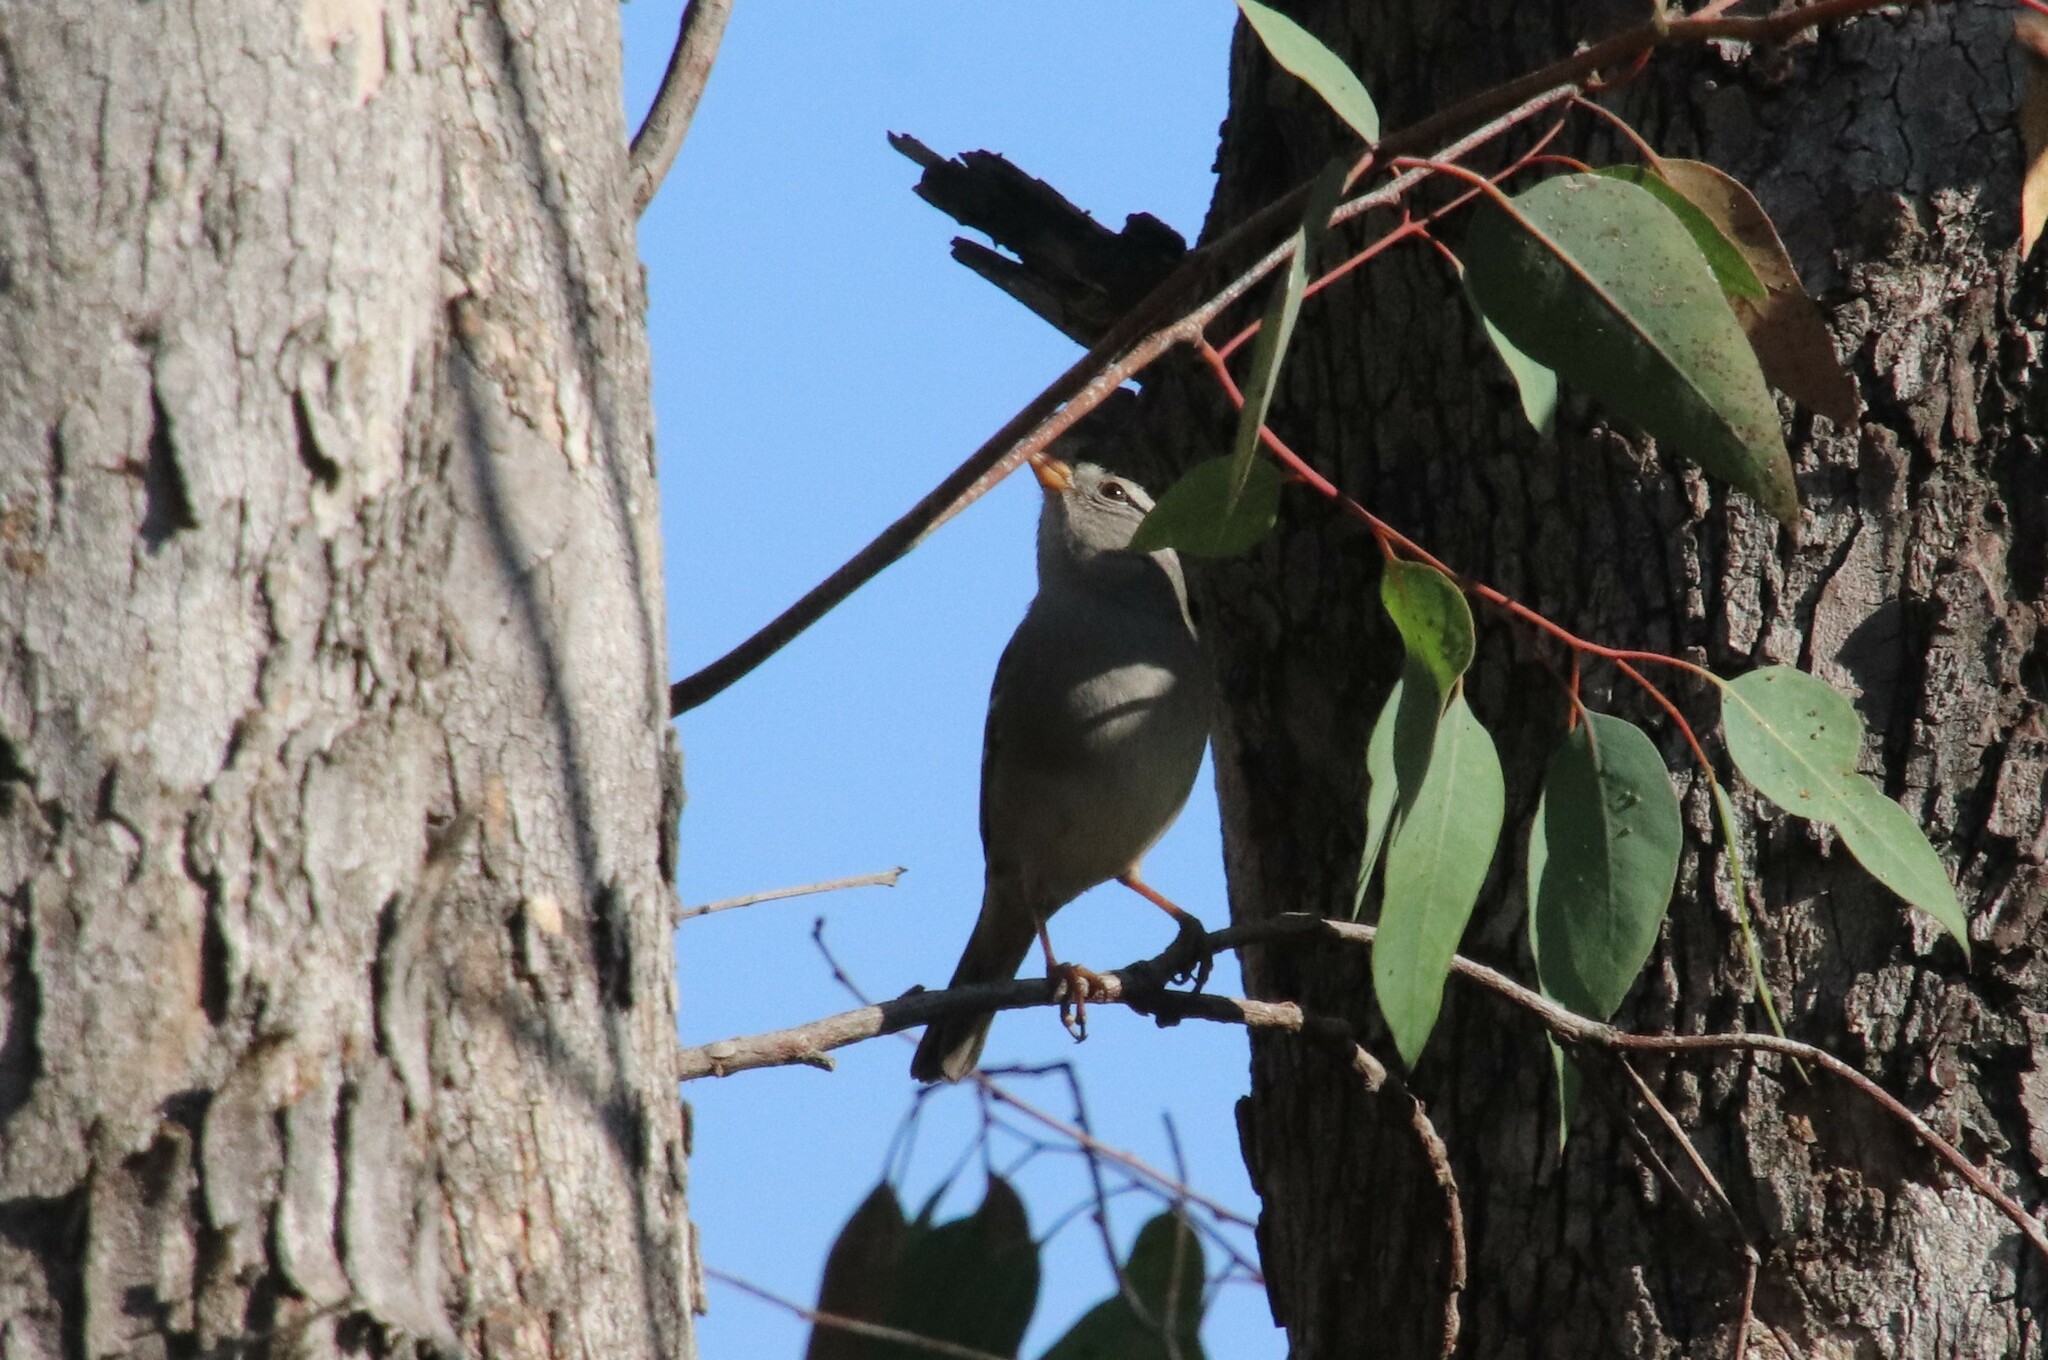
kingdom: Animalia
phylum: Chordata
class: Aves
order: Passeriformes
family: Passerellidae
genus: Zonotrichia
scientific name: Zonotrichia leucophrys
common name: White-crowned sparrow
